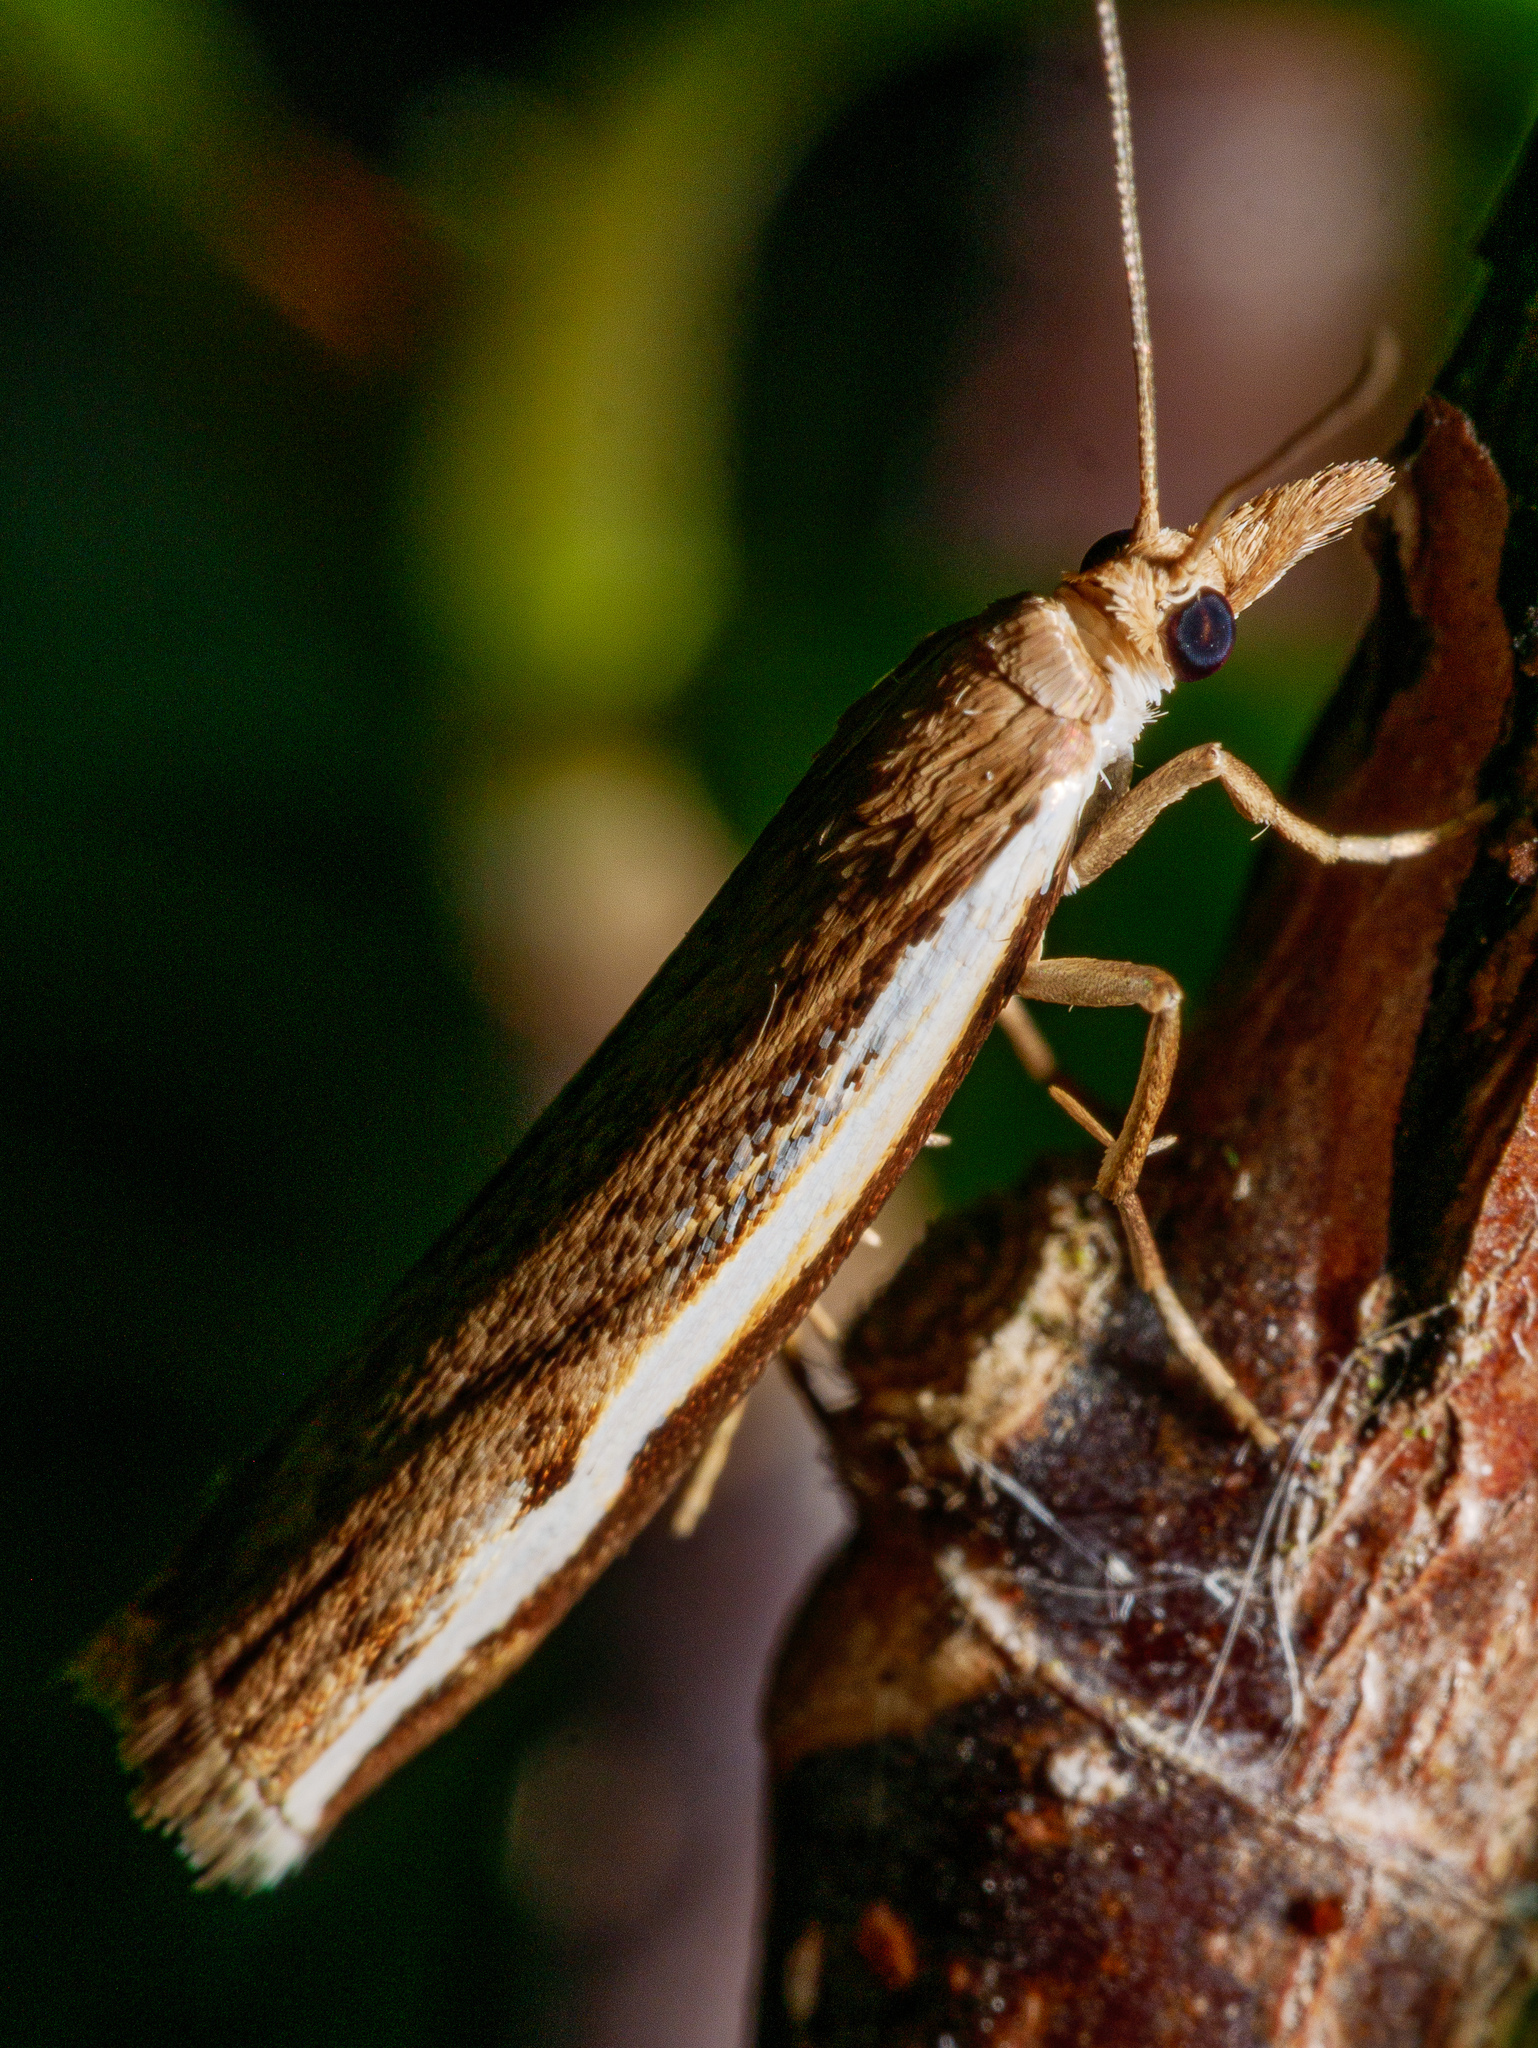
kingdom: Animalia
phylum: Arthropoda
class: Insecta
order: Lepidoptera
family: Crambidae
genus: Orocrambus
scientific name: Orocrambus flexuosellus
